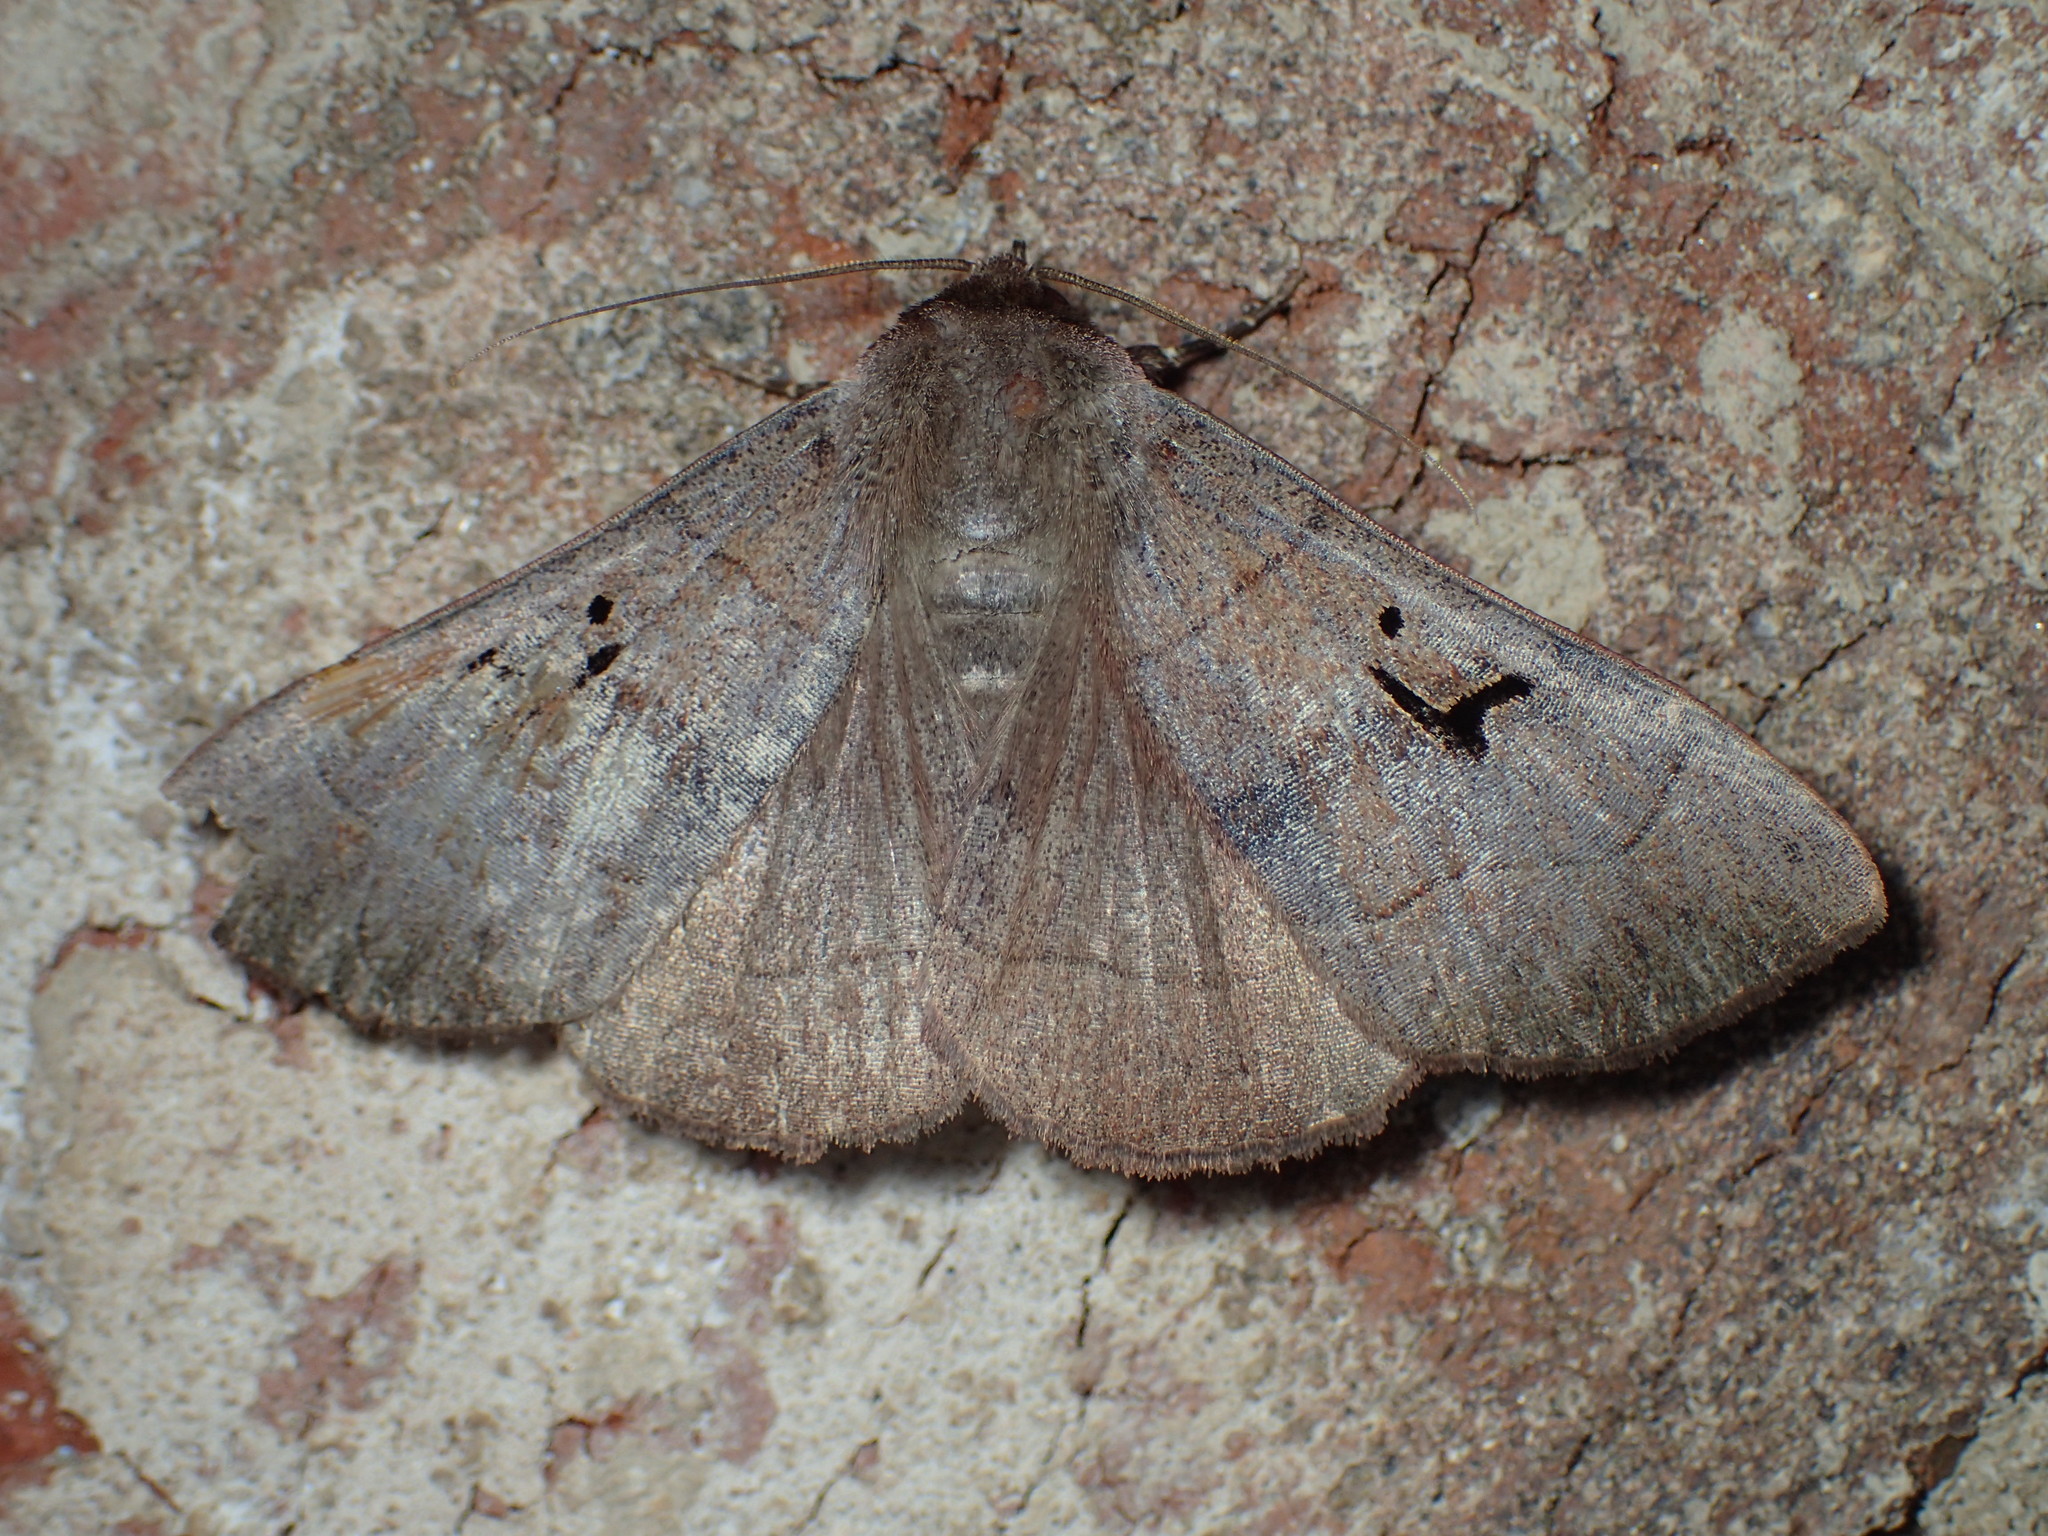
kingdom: Animalia
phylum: Arthropoda
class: Insecta
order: Lepidoptera
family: Erebidae
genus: Panopoda
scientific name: Panopoda carneicosta
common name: Brown panopoda moth
